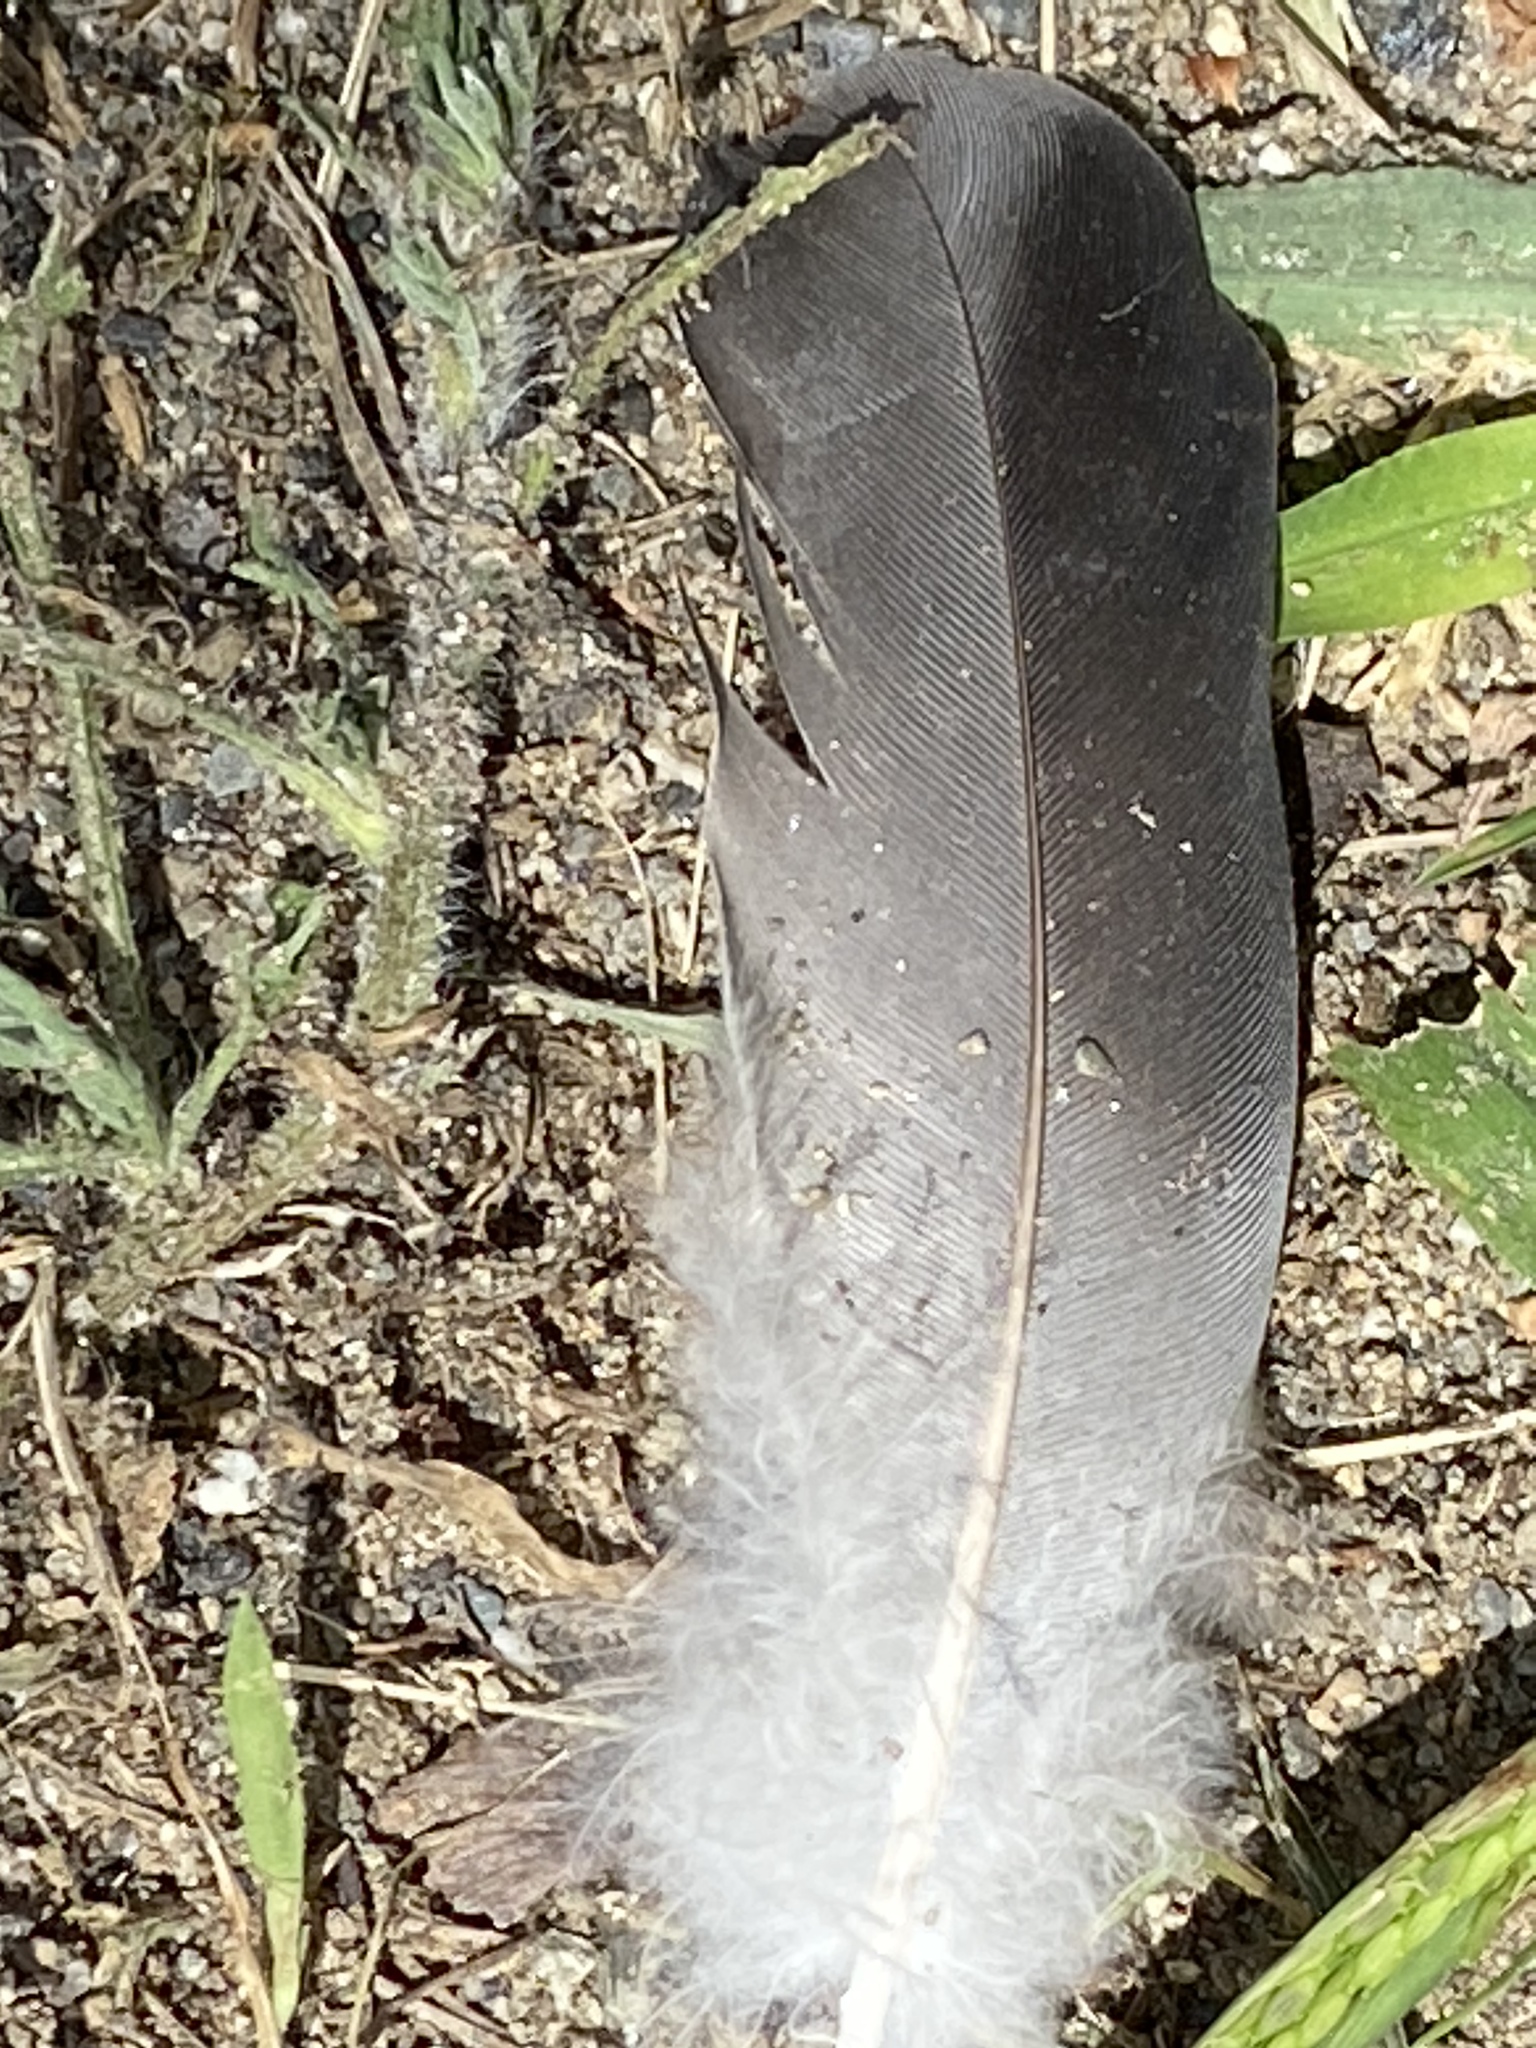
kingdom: Animalia
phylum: Chordata
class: Aves
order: Columbiformes
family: Columbidae
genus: Columba
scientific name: Columba livia
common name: Rock pigeon
